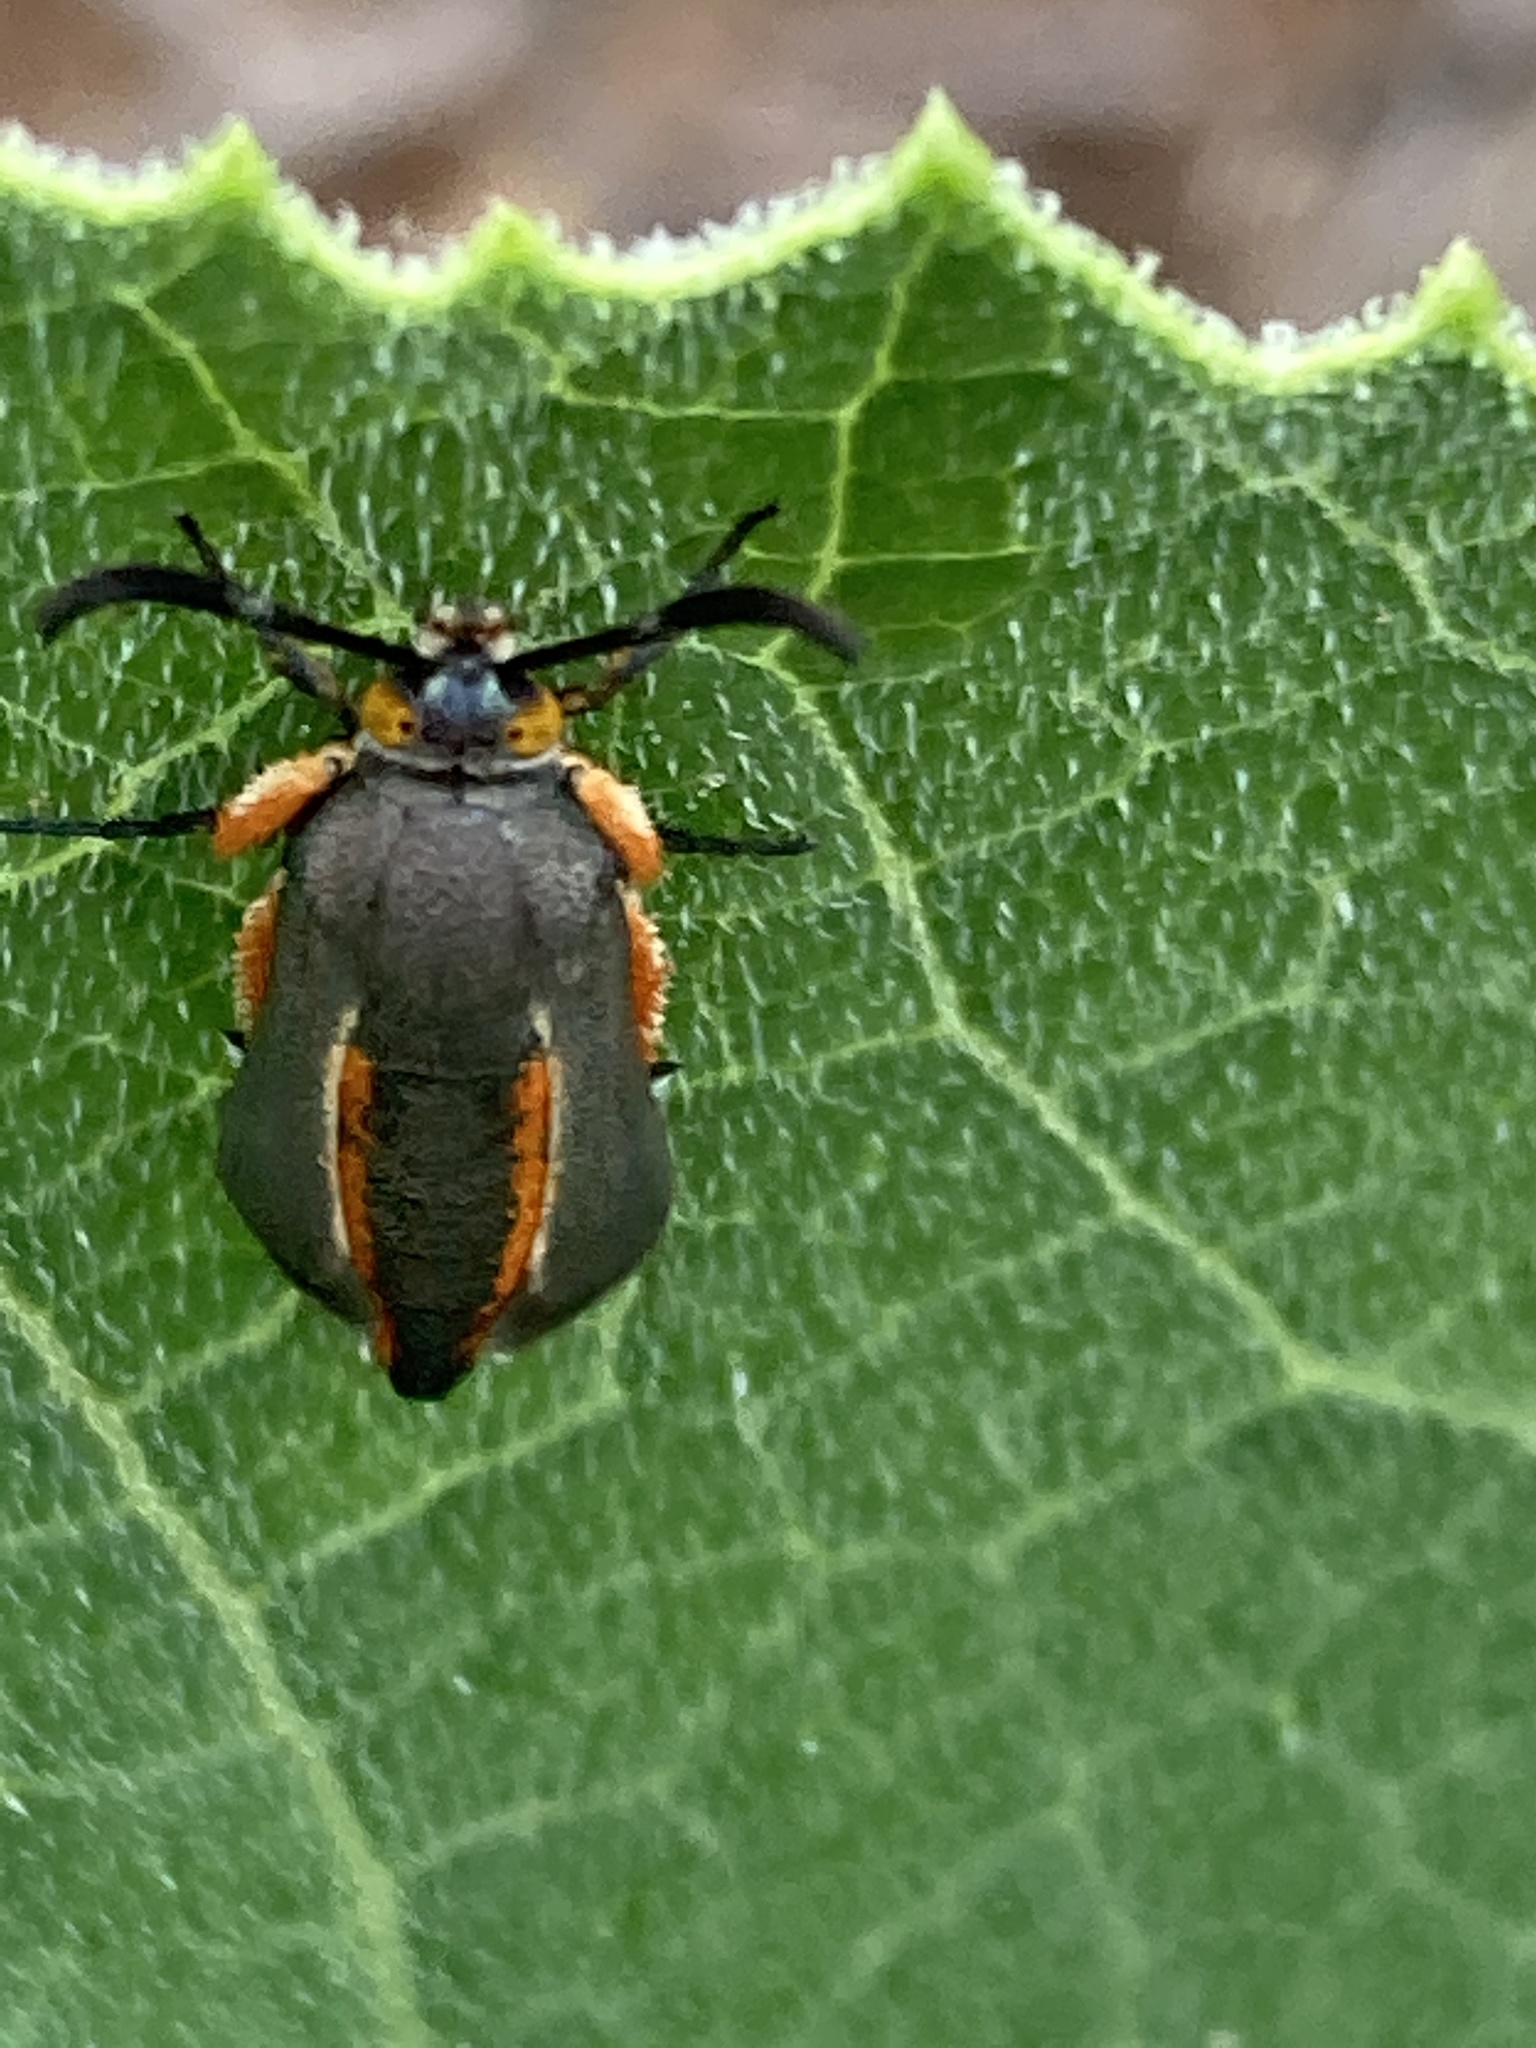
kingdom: Animalia
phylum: Arthropoda
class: Insecta
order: Lepidoptera
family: Sesiidae
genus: Eichlinia
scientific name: Eichlinia snowii
